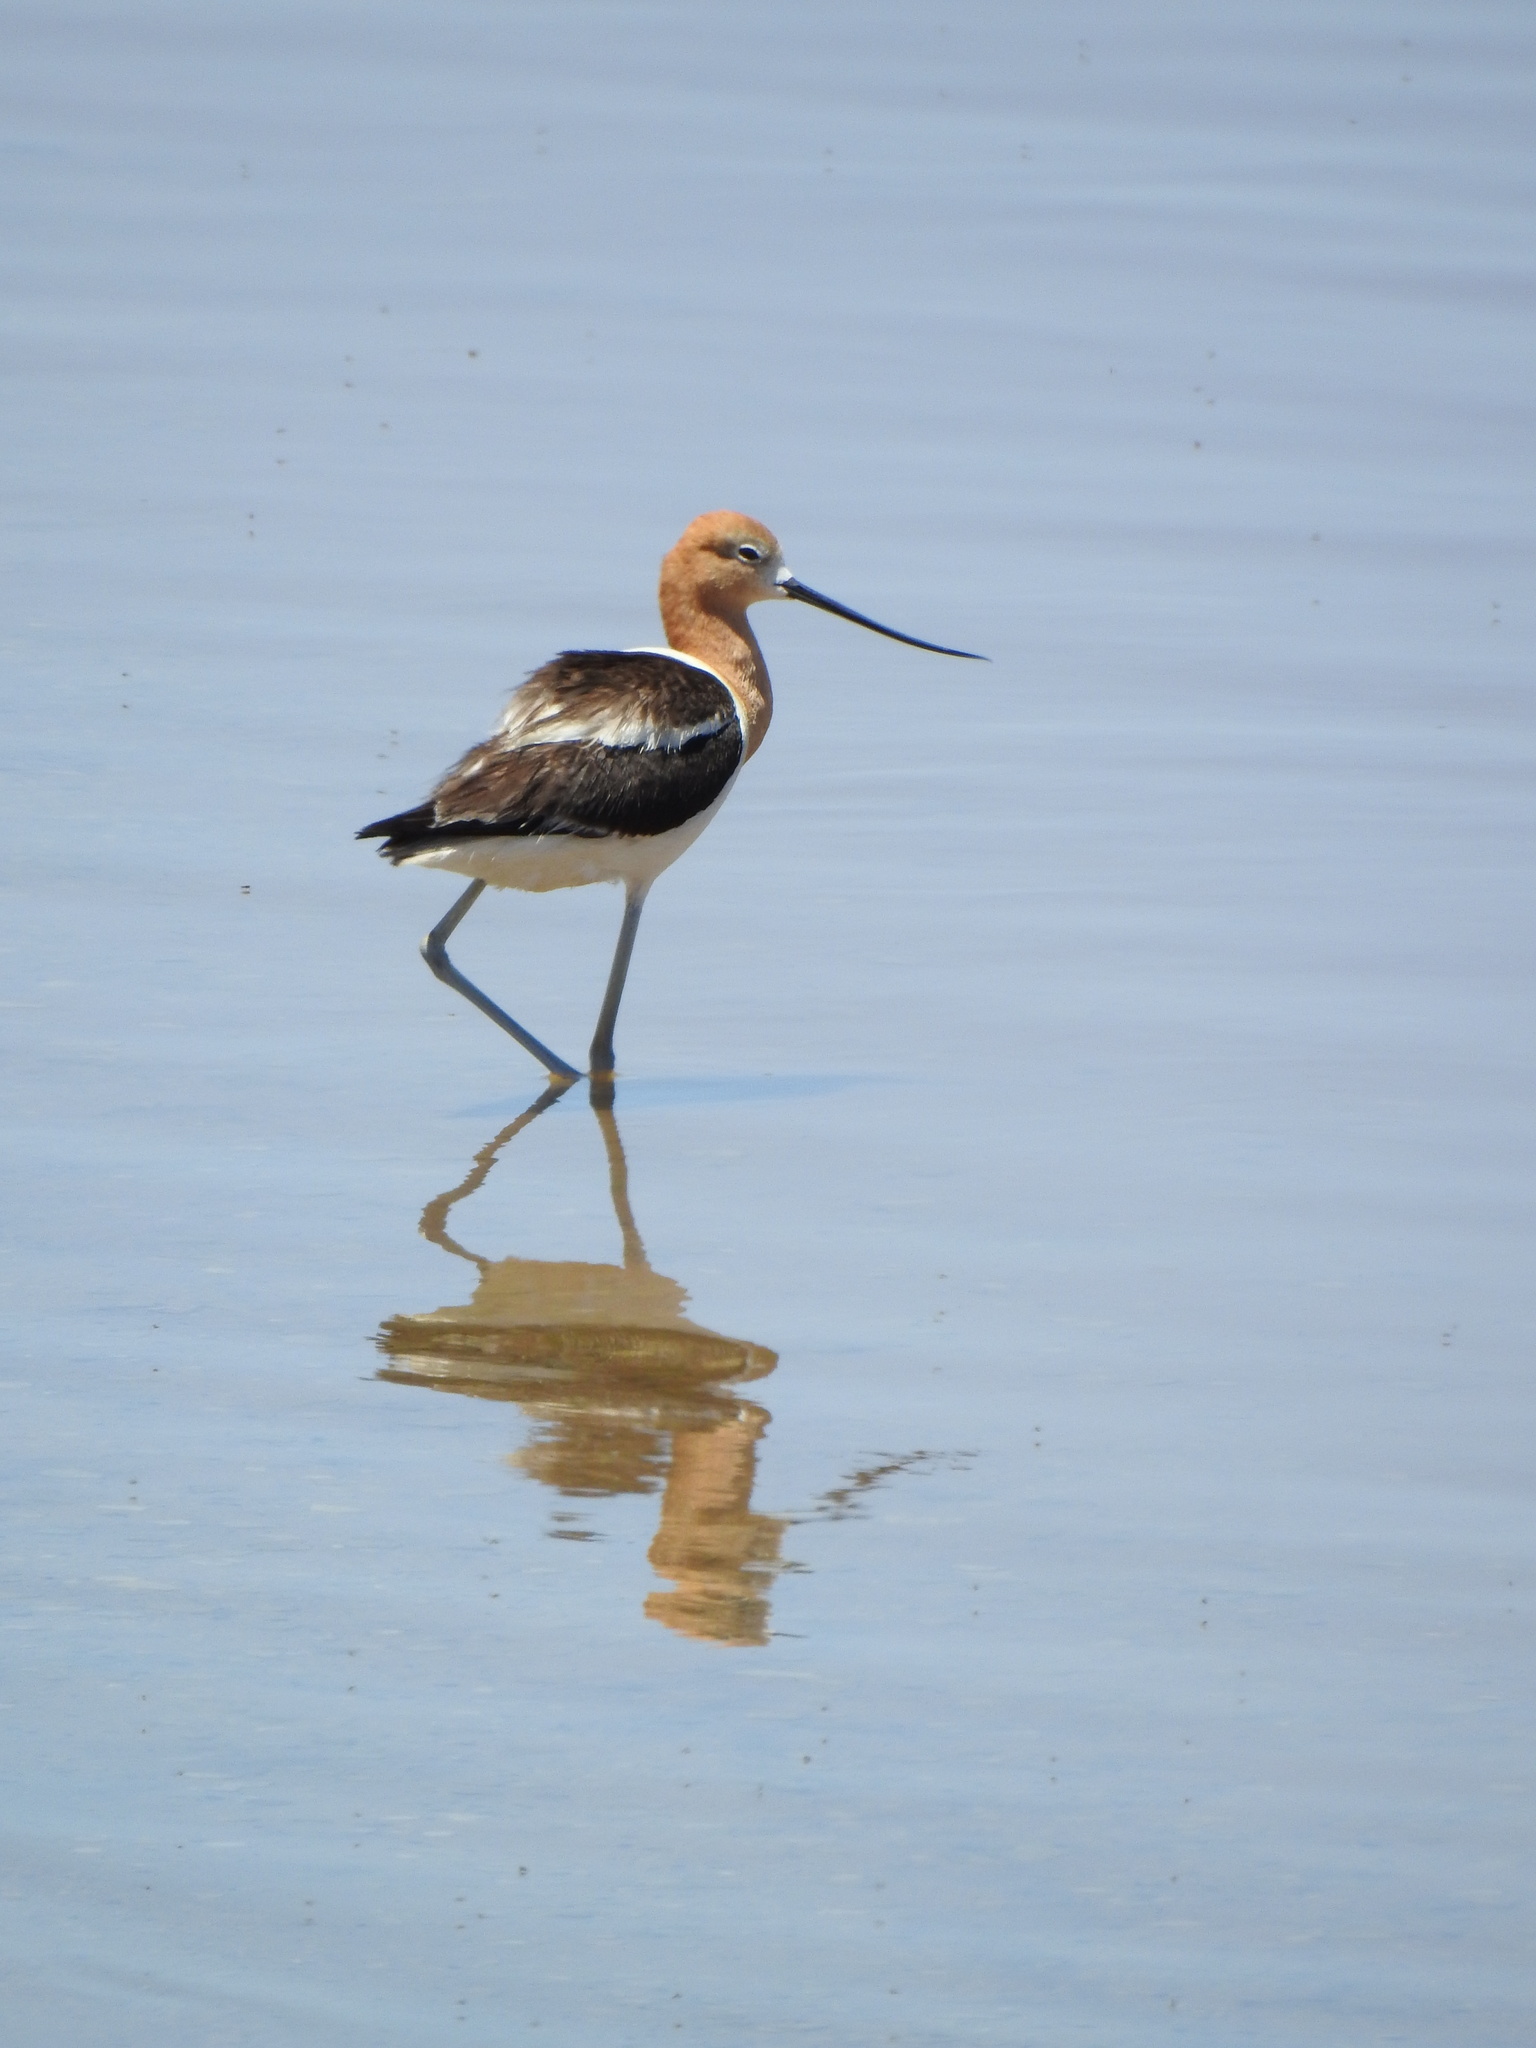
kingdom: Animalia
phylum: Chordata
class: Aves
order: Charadriiformes
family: Recurvirostridae
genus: Recurvirostra
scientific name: Recurvirostra americana
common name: American avocet
